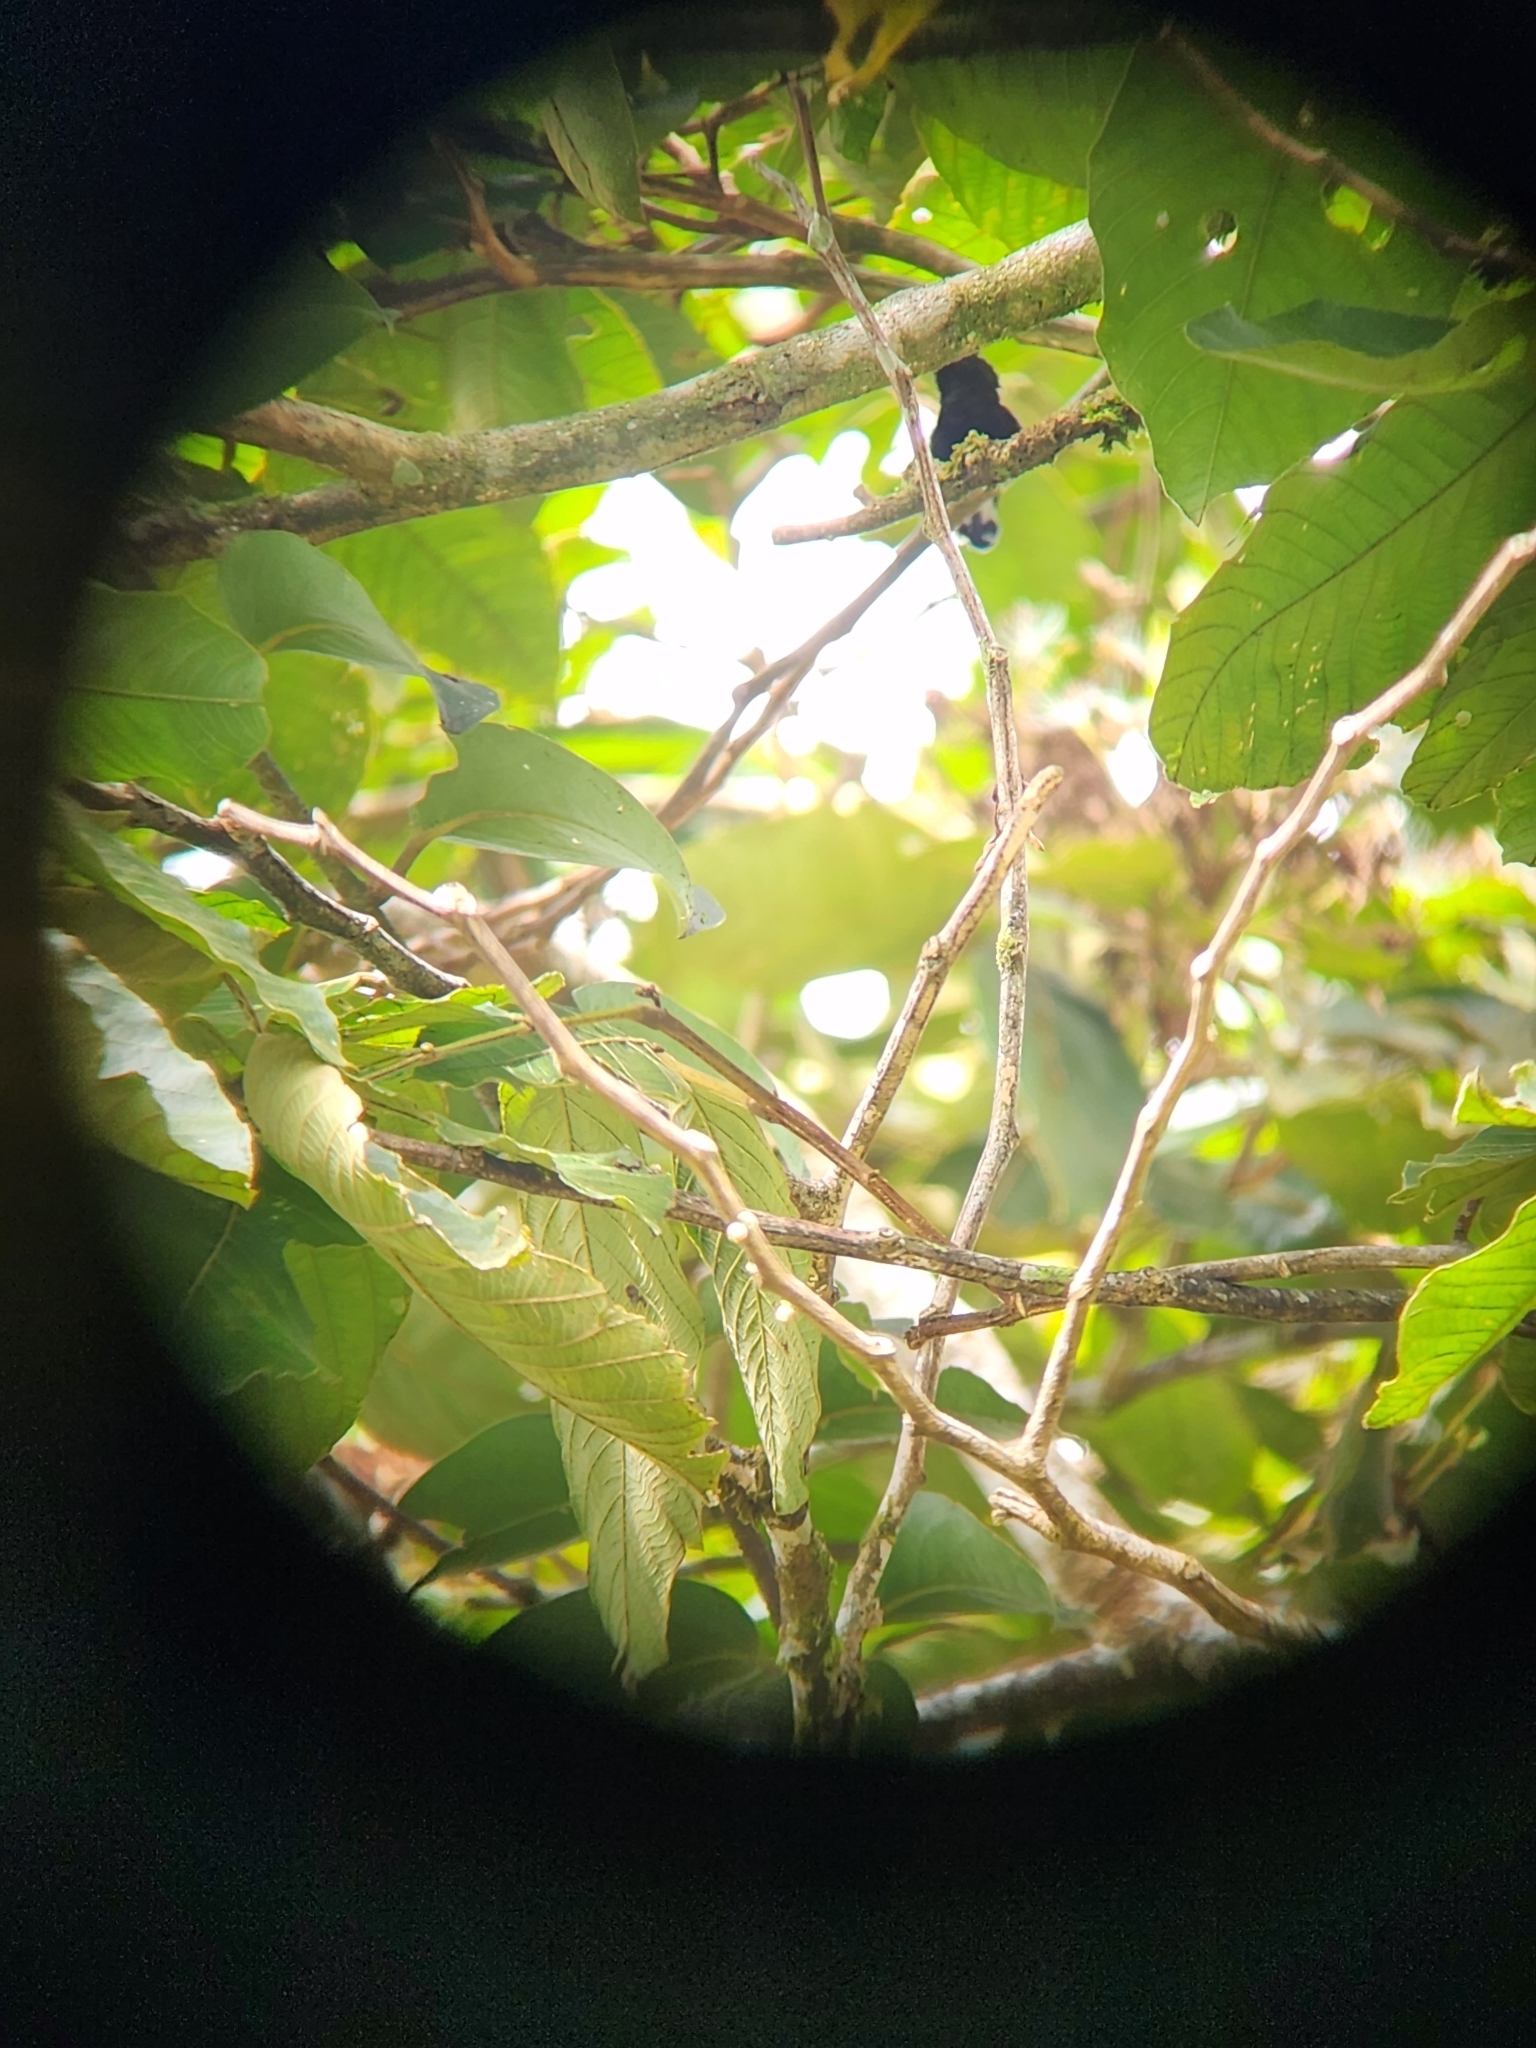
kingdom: Animalia
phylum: Chordata
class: Aves
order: Apodiformes
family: Trochilidae
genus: Microchera
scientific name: Microchera albocoronata
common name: Snowcap
